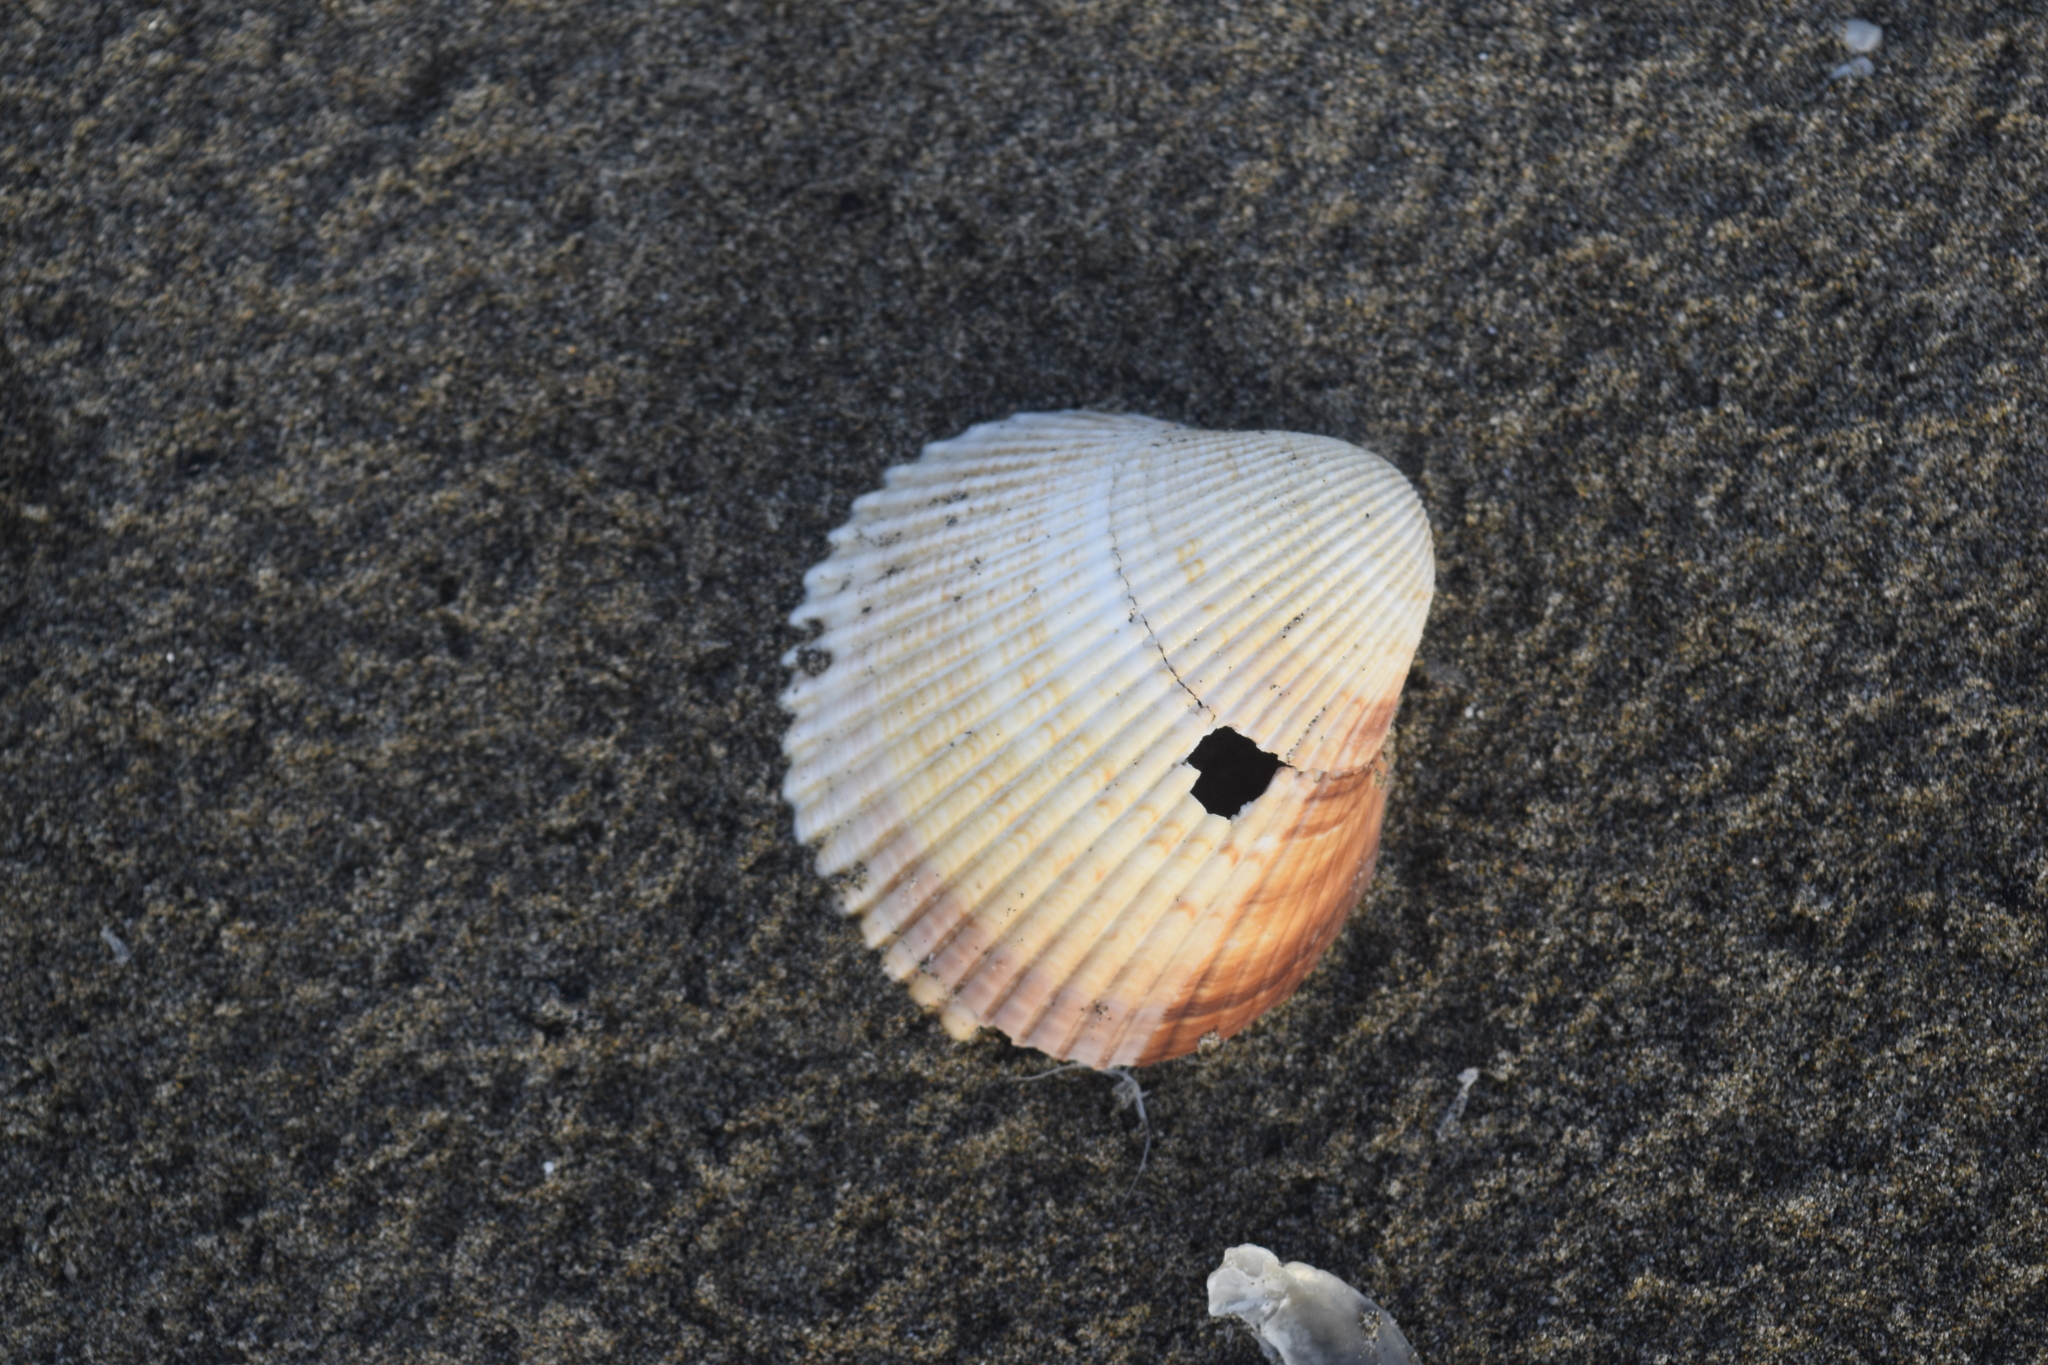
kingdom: Animalia
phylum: Mollusca
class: Bivalvia
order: Cardiida
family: Cardiidae
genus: Dinocardium
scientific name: Dinocardium robustum
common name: Atlantic giant cockle
